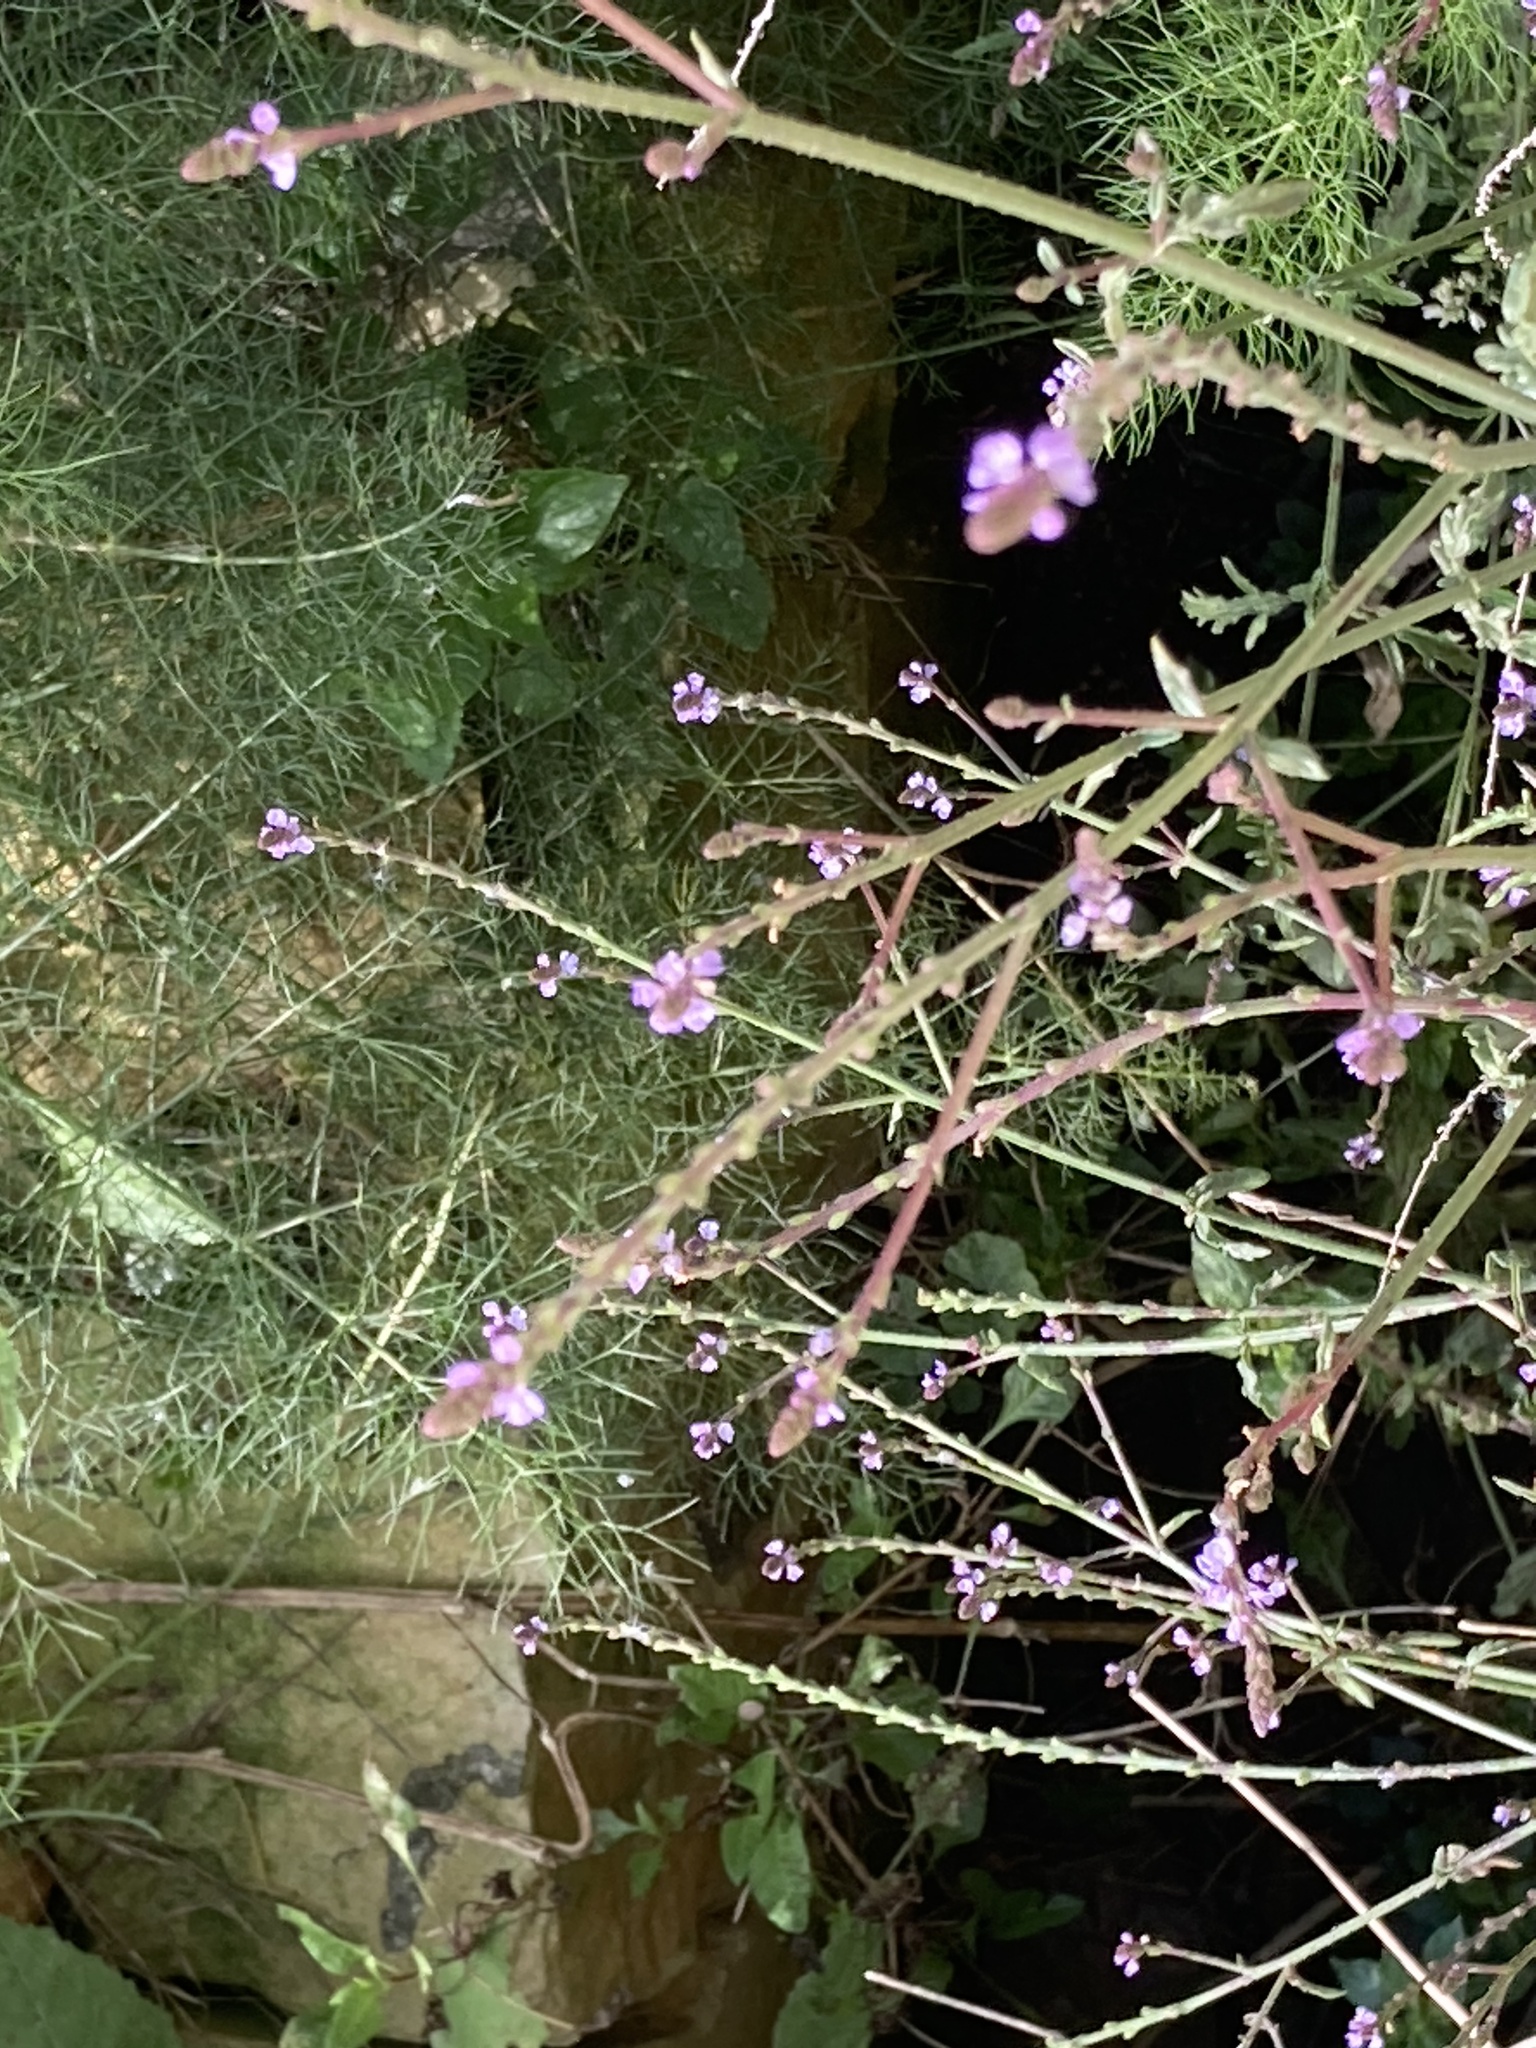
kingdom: Plantae
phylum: Tracheophyta
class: Magnoliopsida
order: Lamiales
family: Verbenaceae
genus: Verbena
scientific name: Verbena officinalis
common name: Vervain
